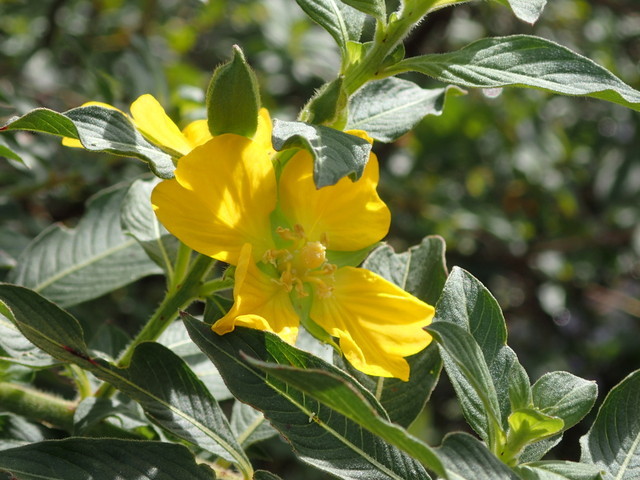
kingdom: Plantae
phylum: Tracheophyta
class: Magnoliopsida
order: Myrtales
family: Onagraceae
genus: Ludwigia
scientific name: Ludwigia peruviana
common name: Peruvian primrose-willow
